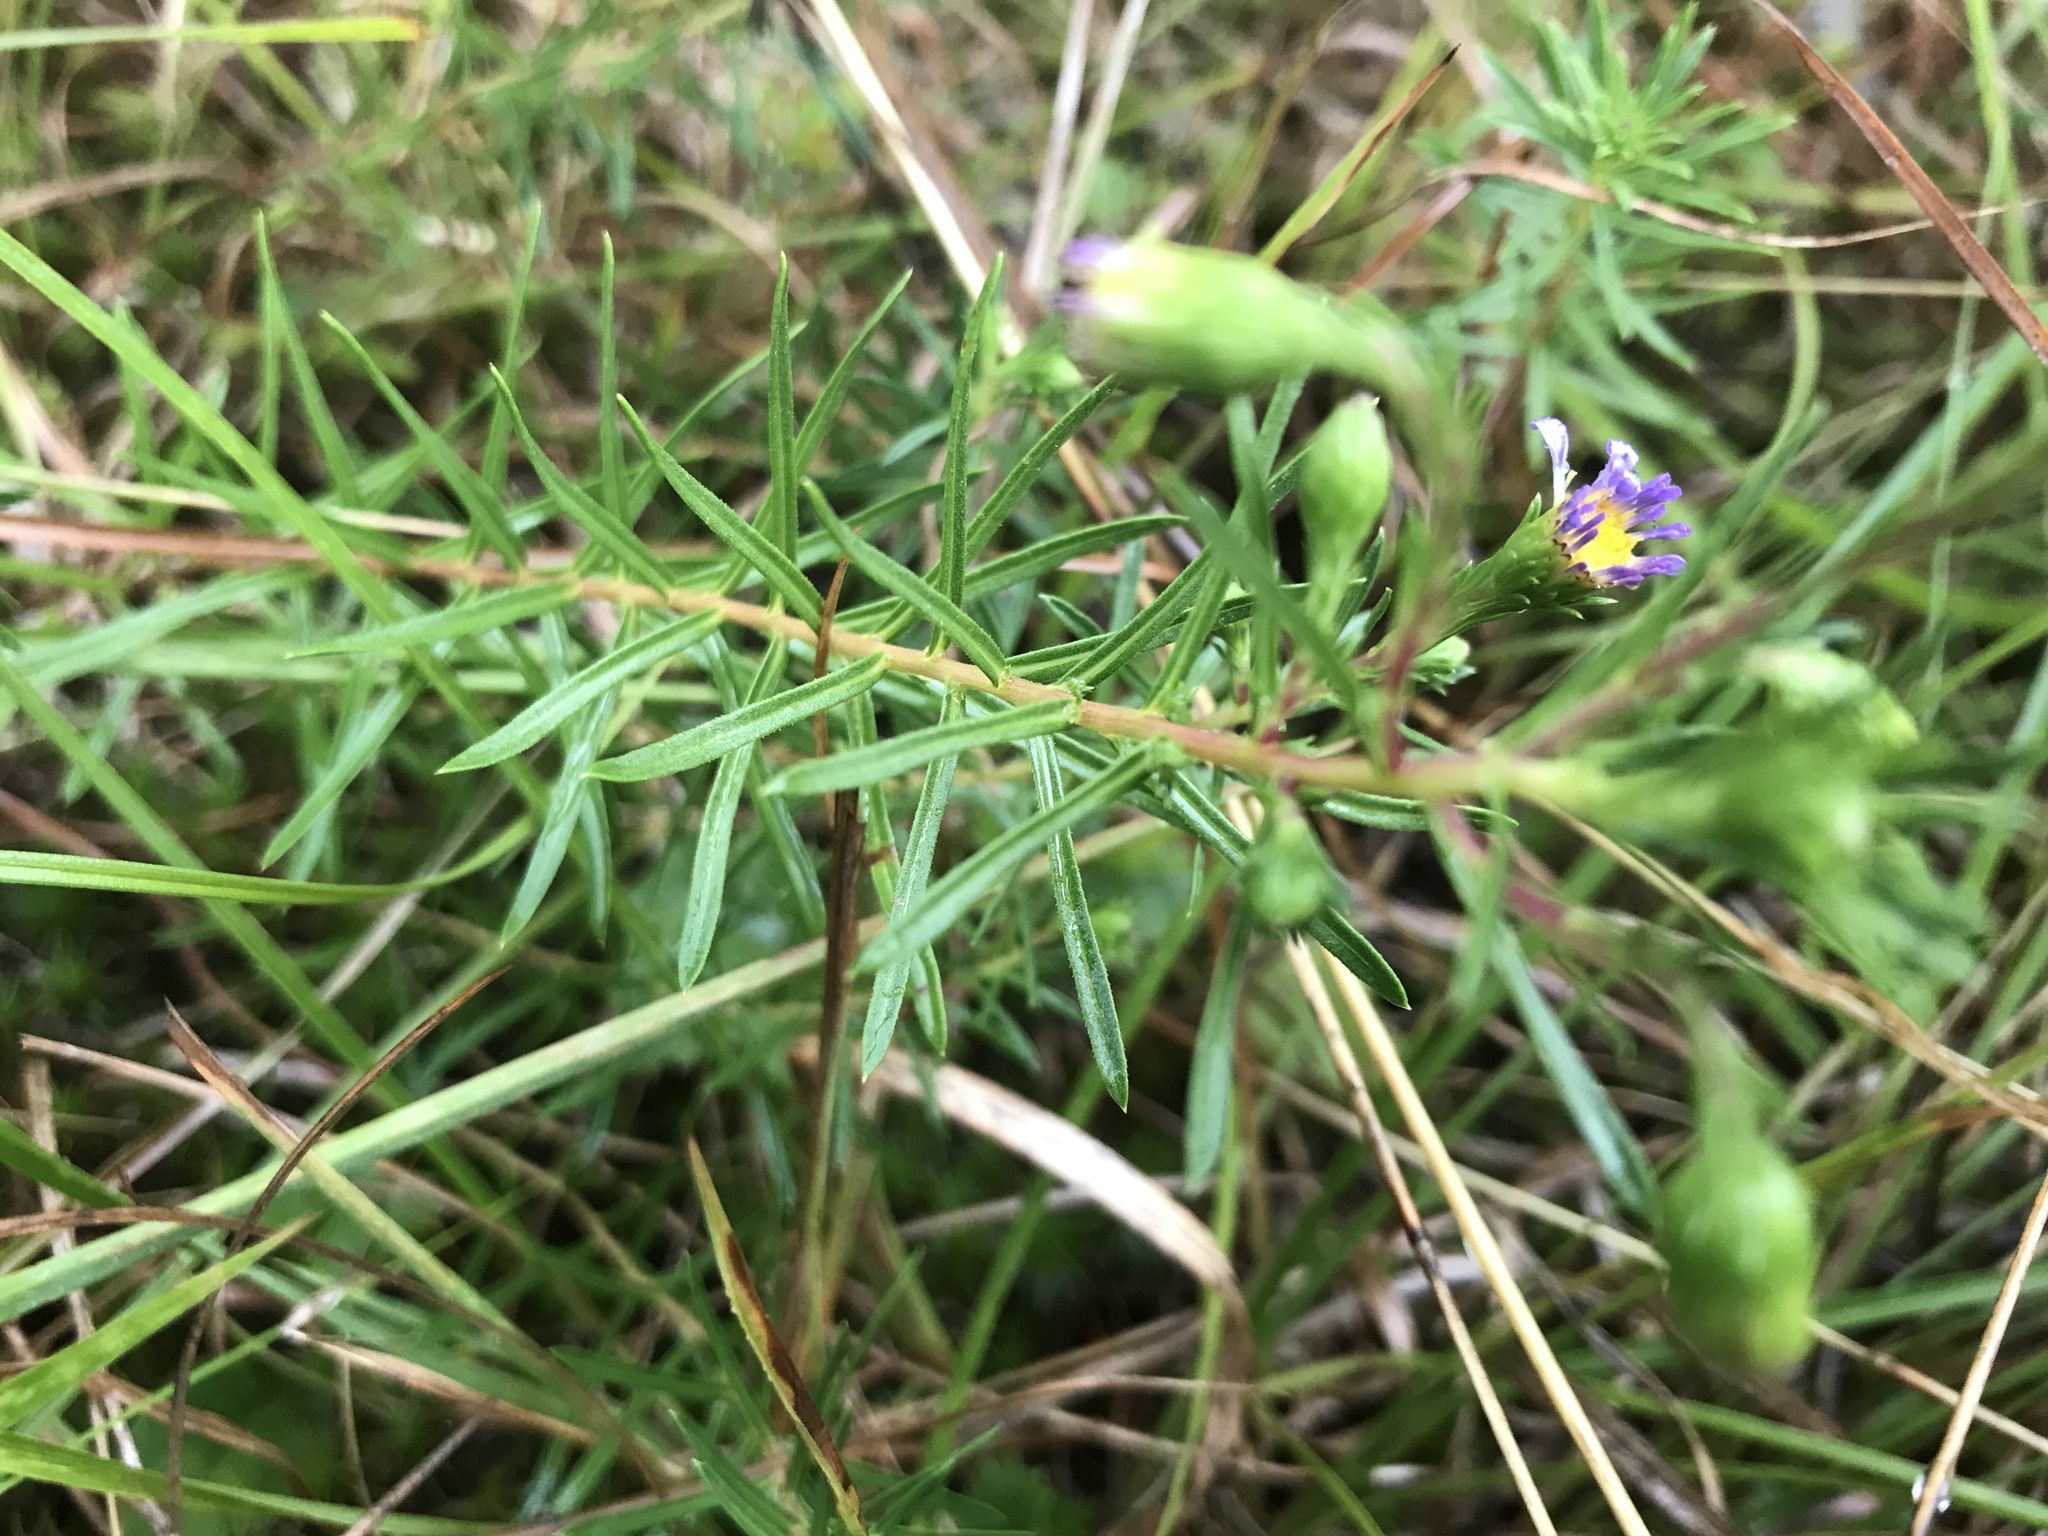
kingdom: Plantae
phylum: Tracheophyta
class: Magnoliopsida
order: Asterales
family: Asteraceae
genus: Ionactis
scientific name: Ionactis linariifolia
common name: Flax-leaf aster
